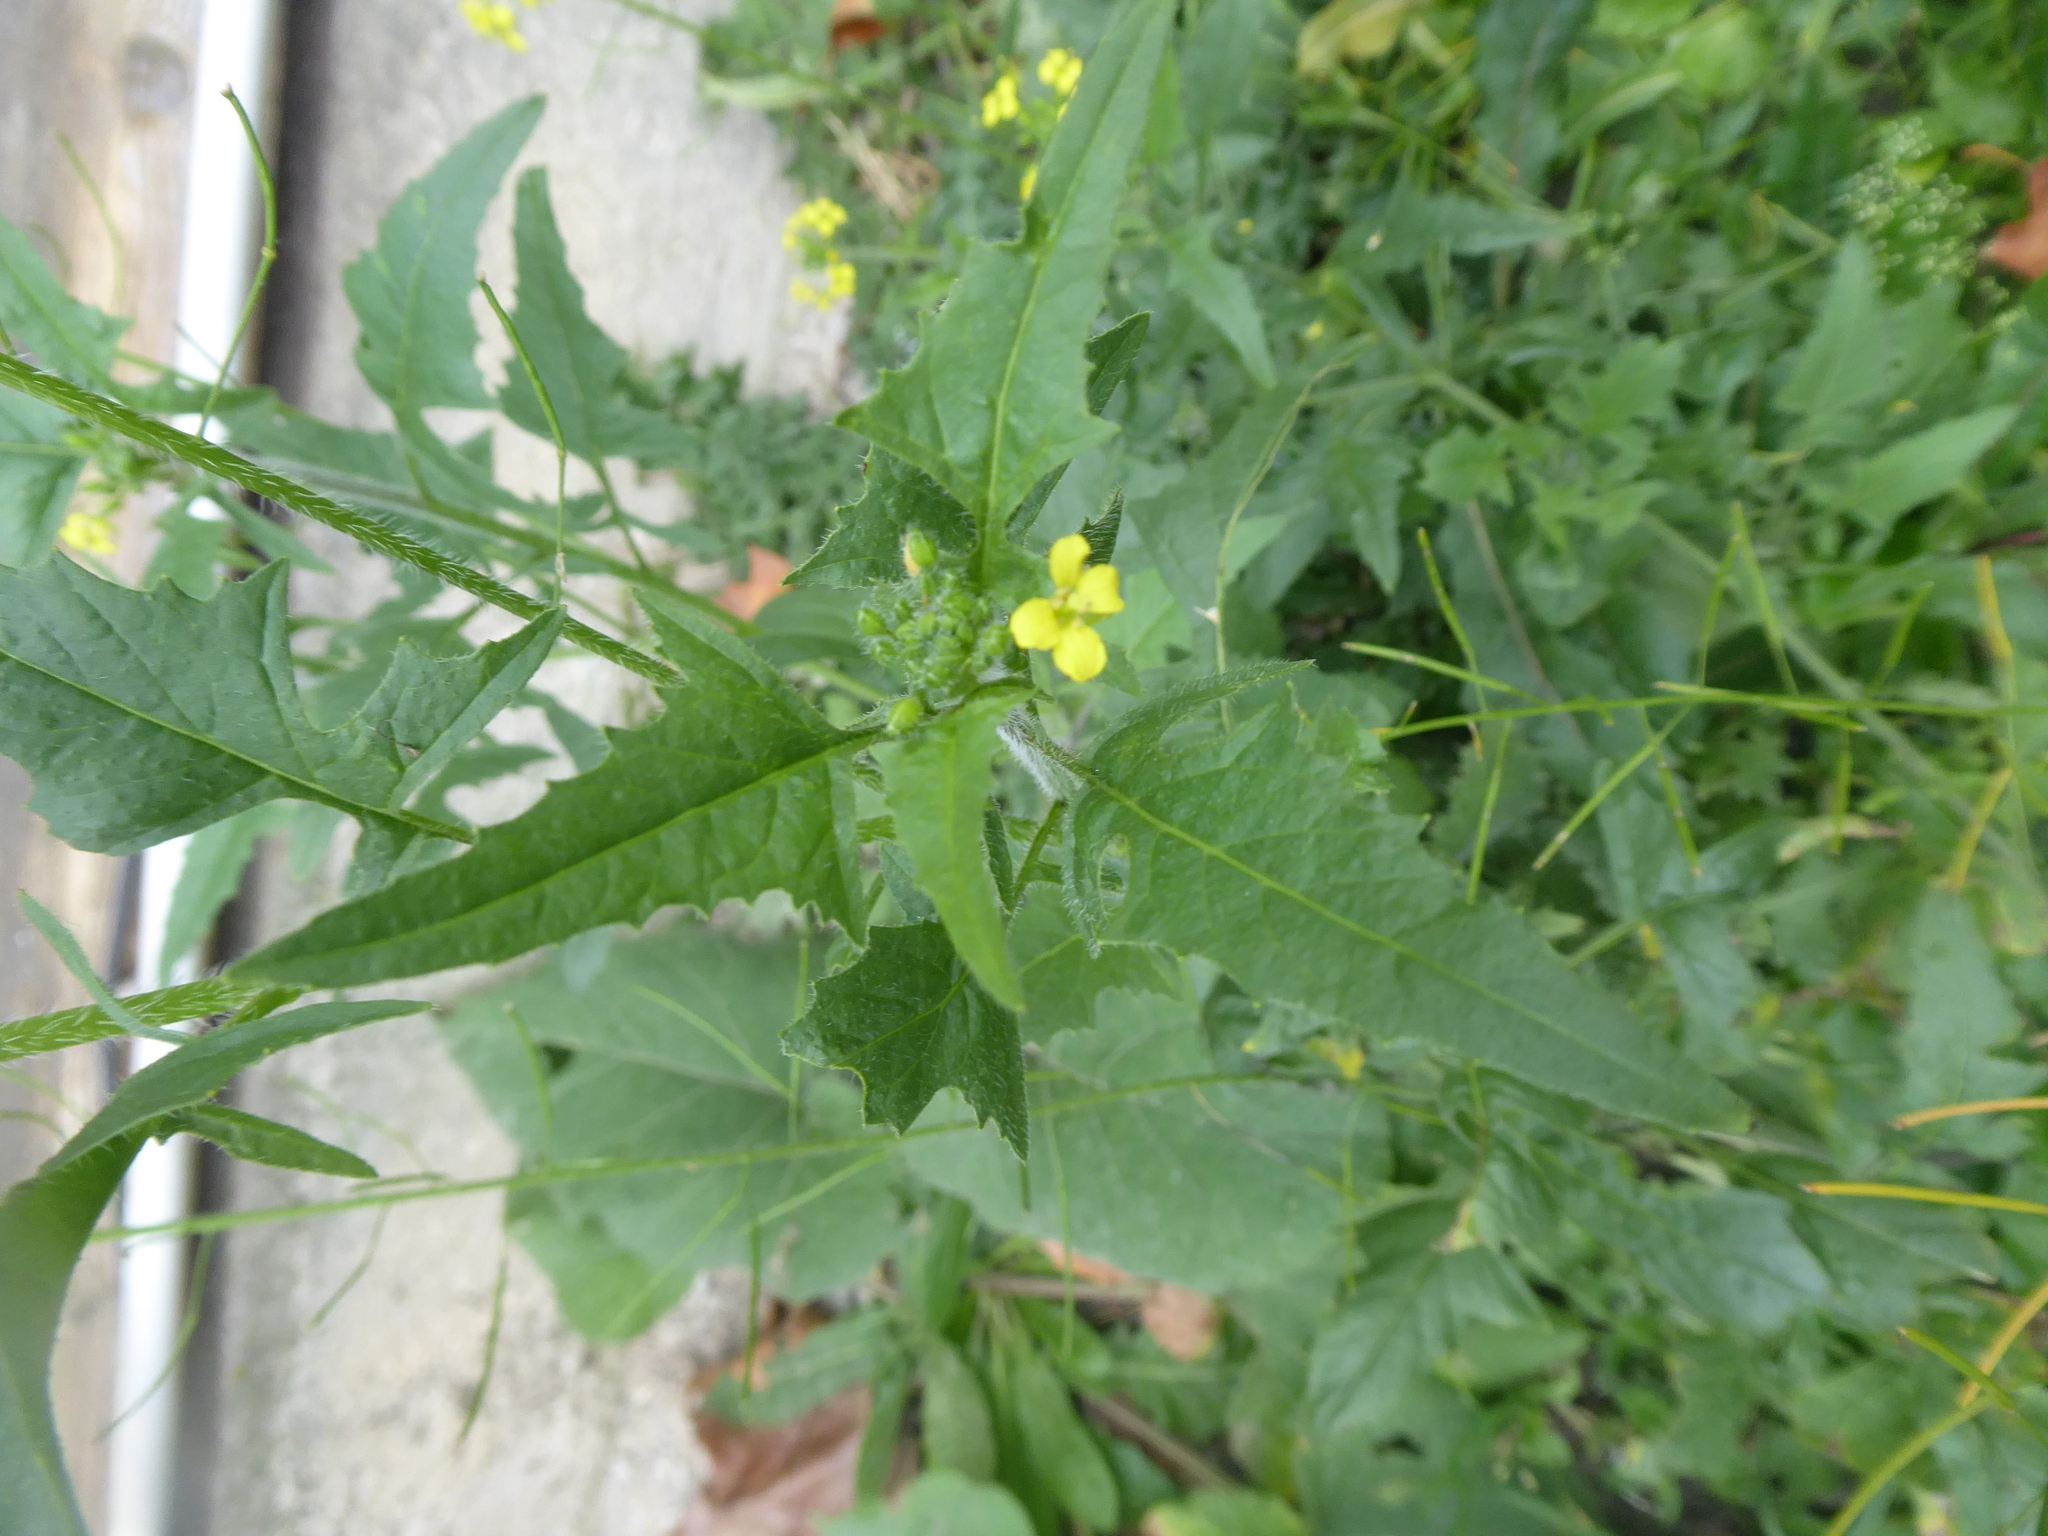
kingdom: Plantae
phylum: Tracheophyta
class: Magnoliopsida
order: Brassicales
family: Brassicaceae
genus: Sisymbrium
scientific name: Sisymbrium loeselii
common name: False london-rocket
